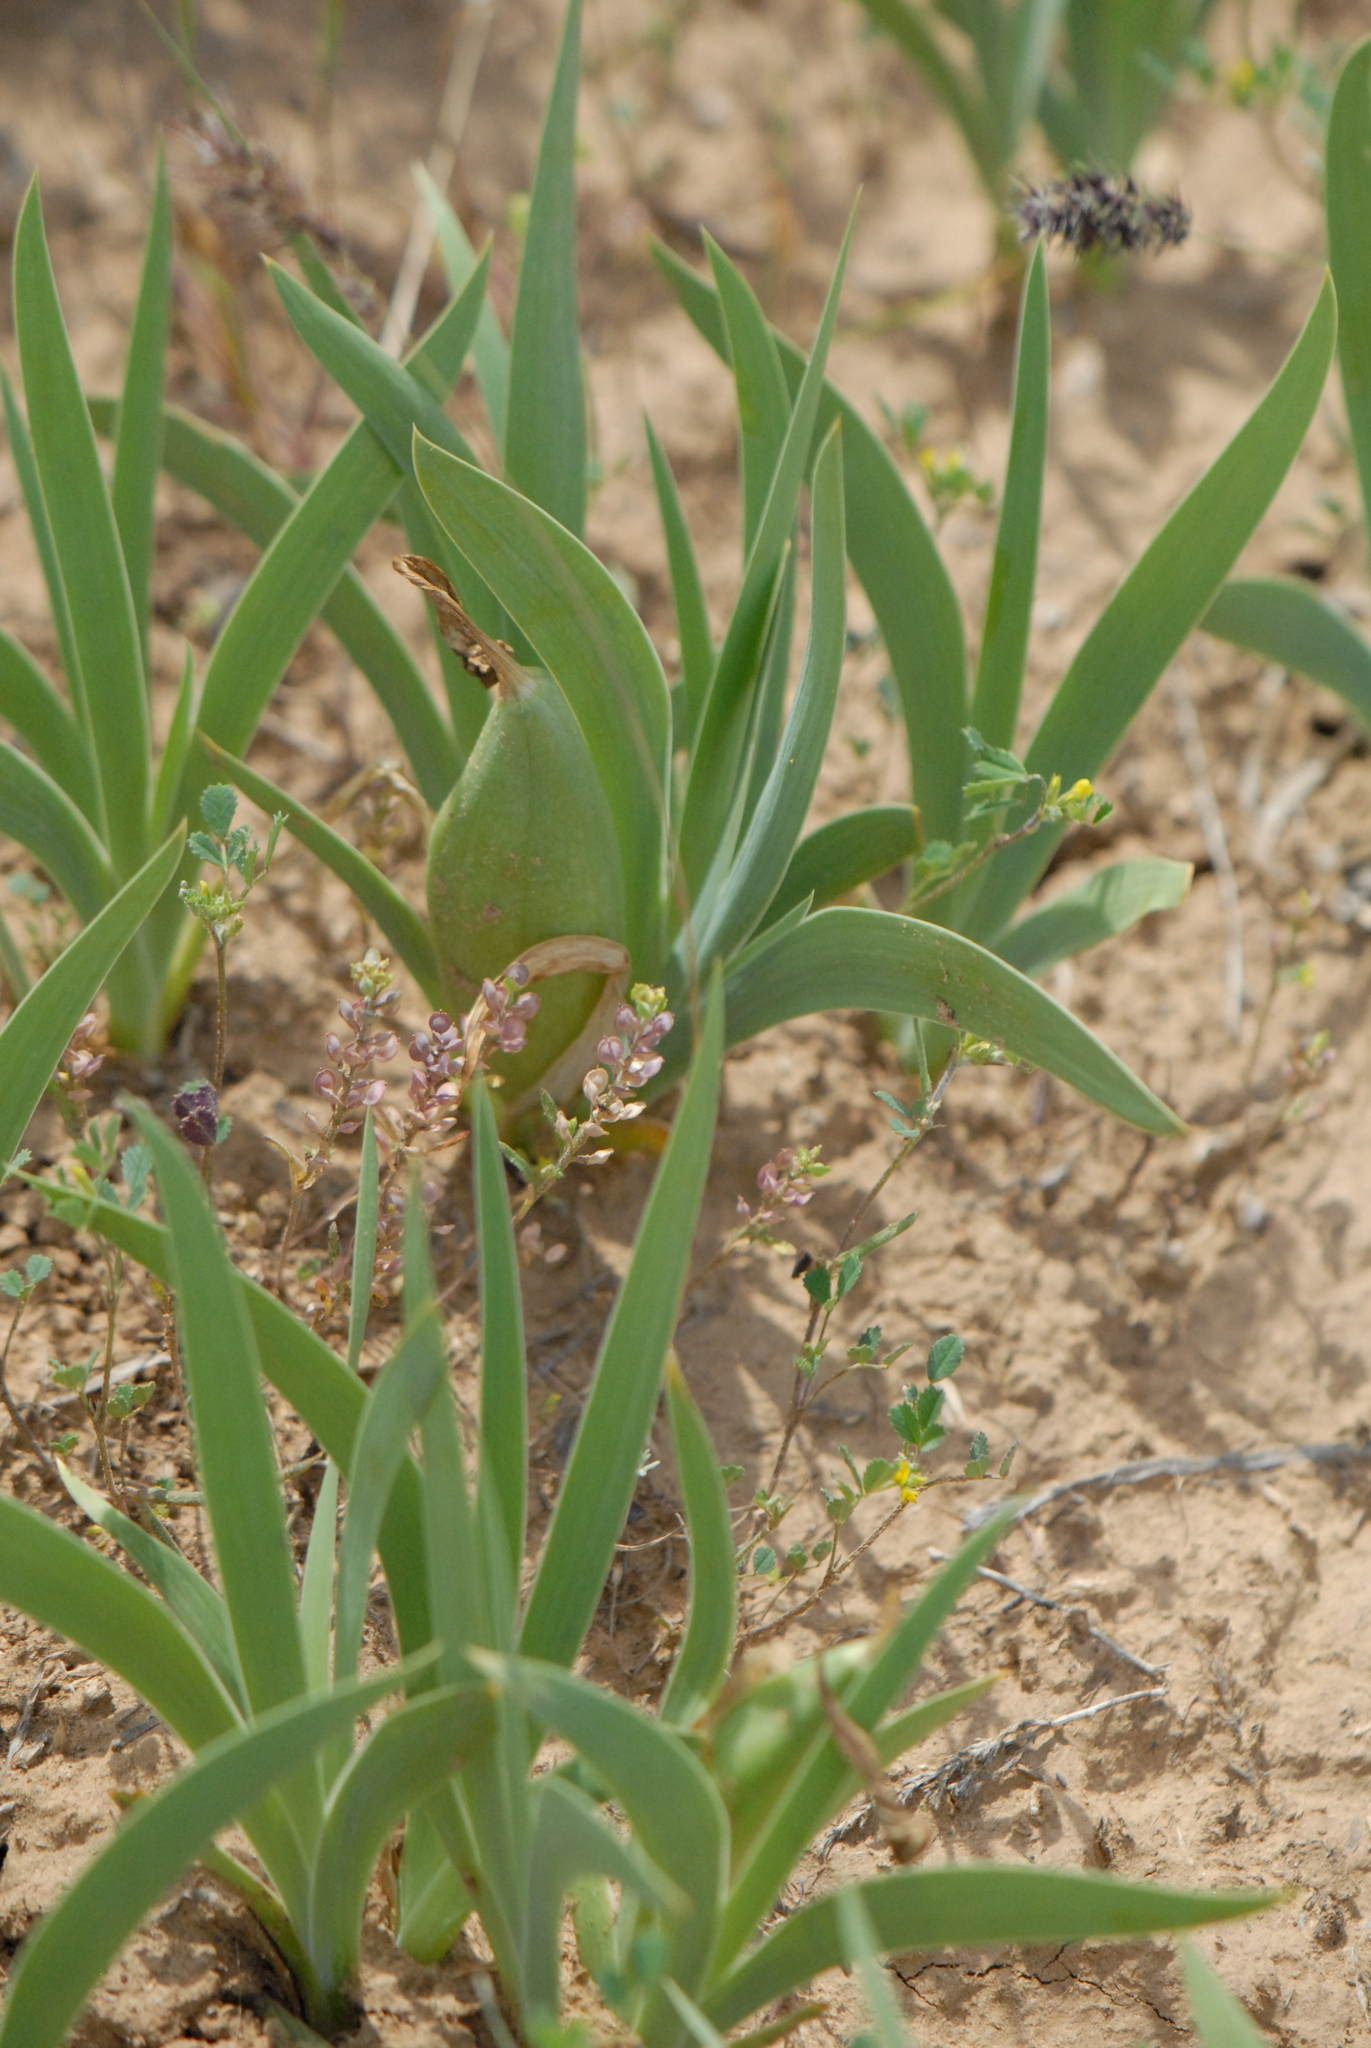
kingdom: Plantae
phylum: Tracheophyta
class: Liliopsida
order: Asparagales
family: Iridaceae
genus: Iris
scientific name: Iris pumila
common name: Dwarf iris
